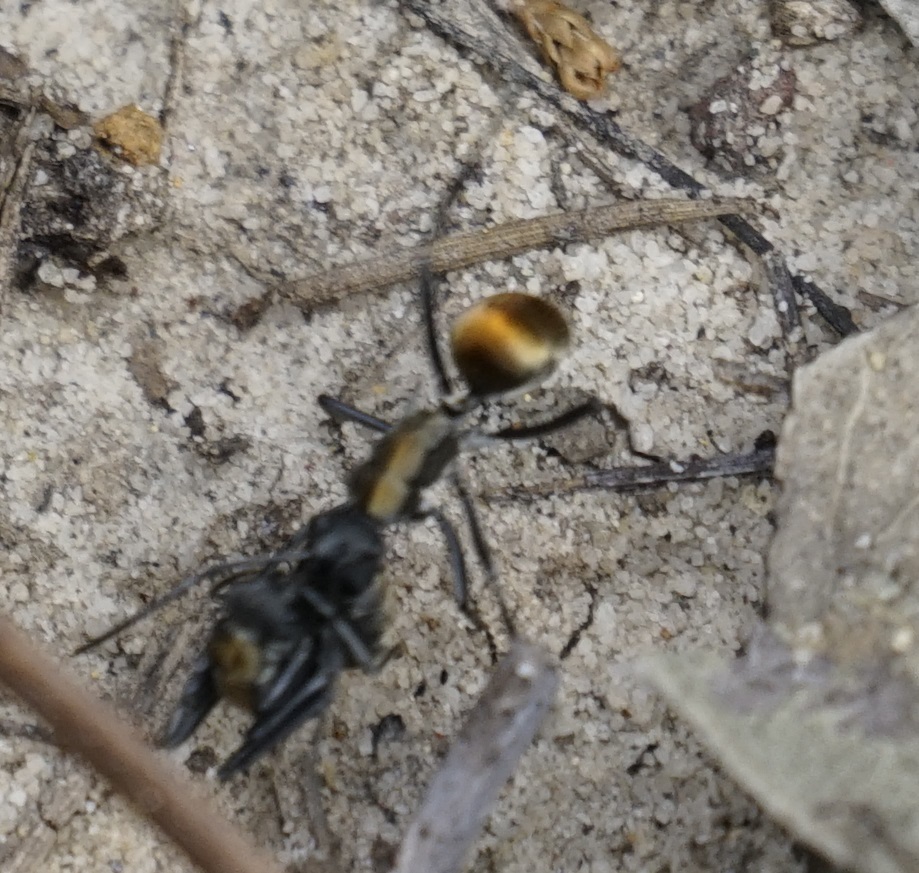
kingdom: Animalia
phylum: Arthropoda
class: Insecta
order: Hymenoptera
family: Formicidae
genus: Polyrhachis
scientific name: Polyrhachis ammon
